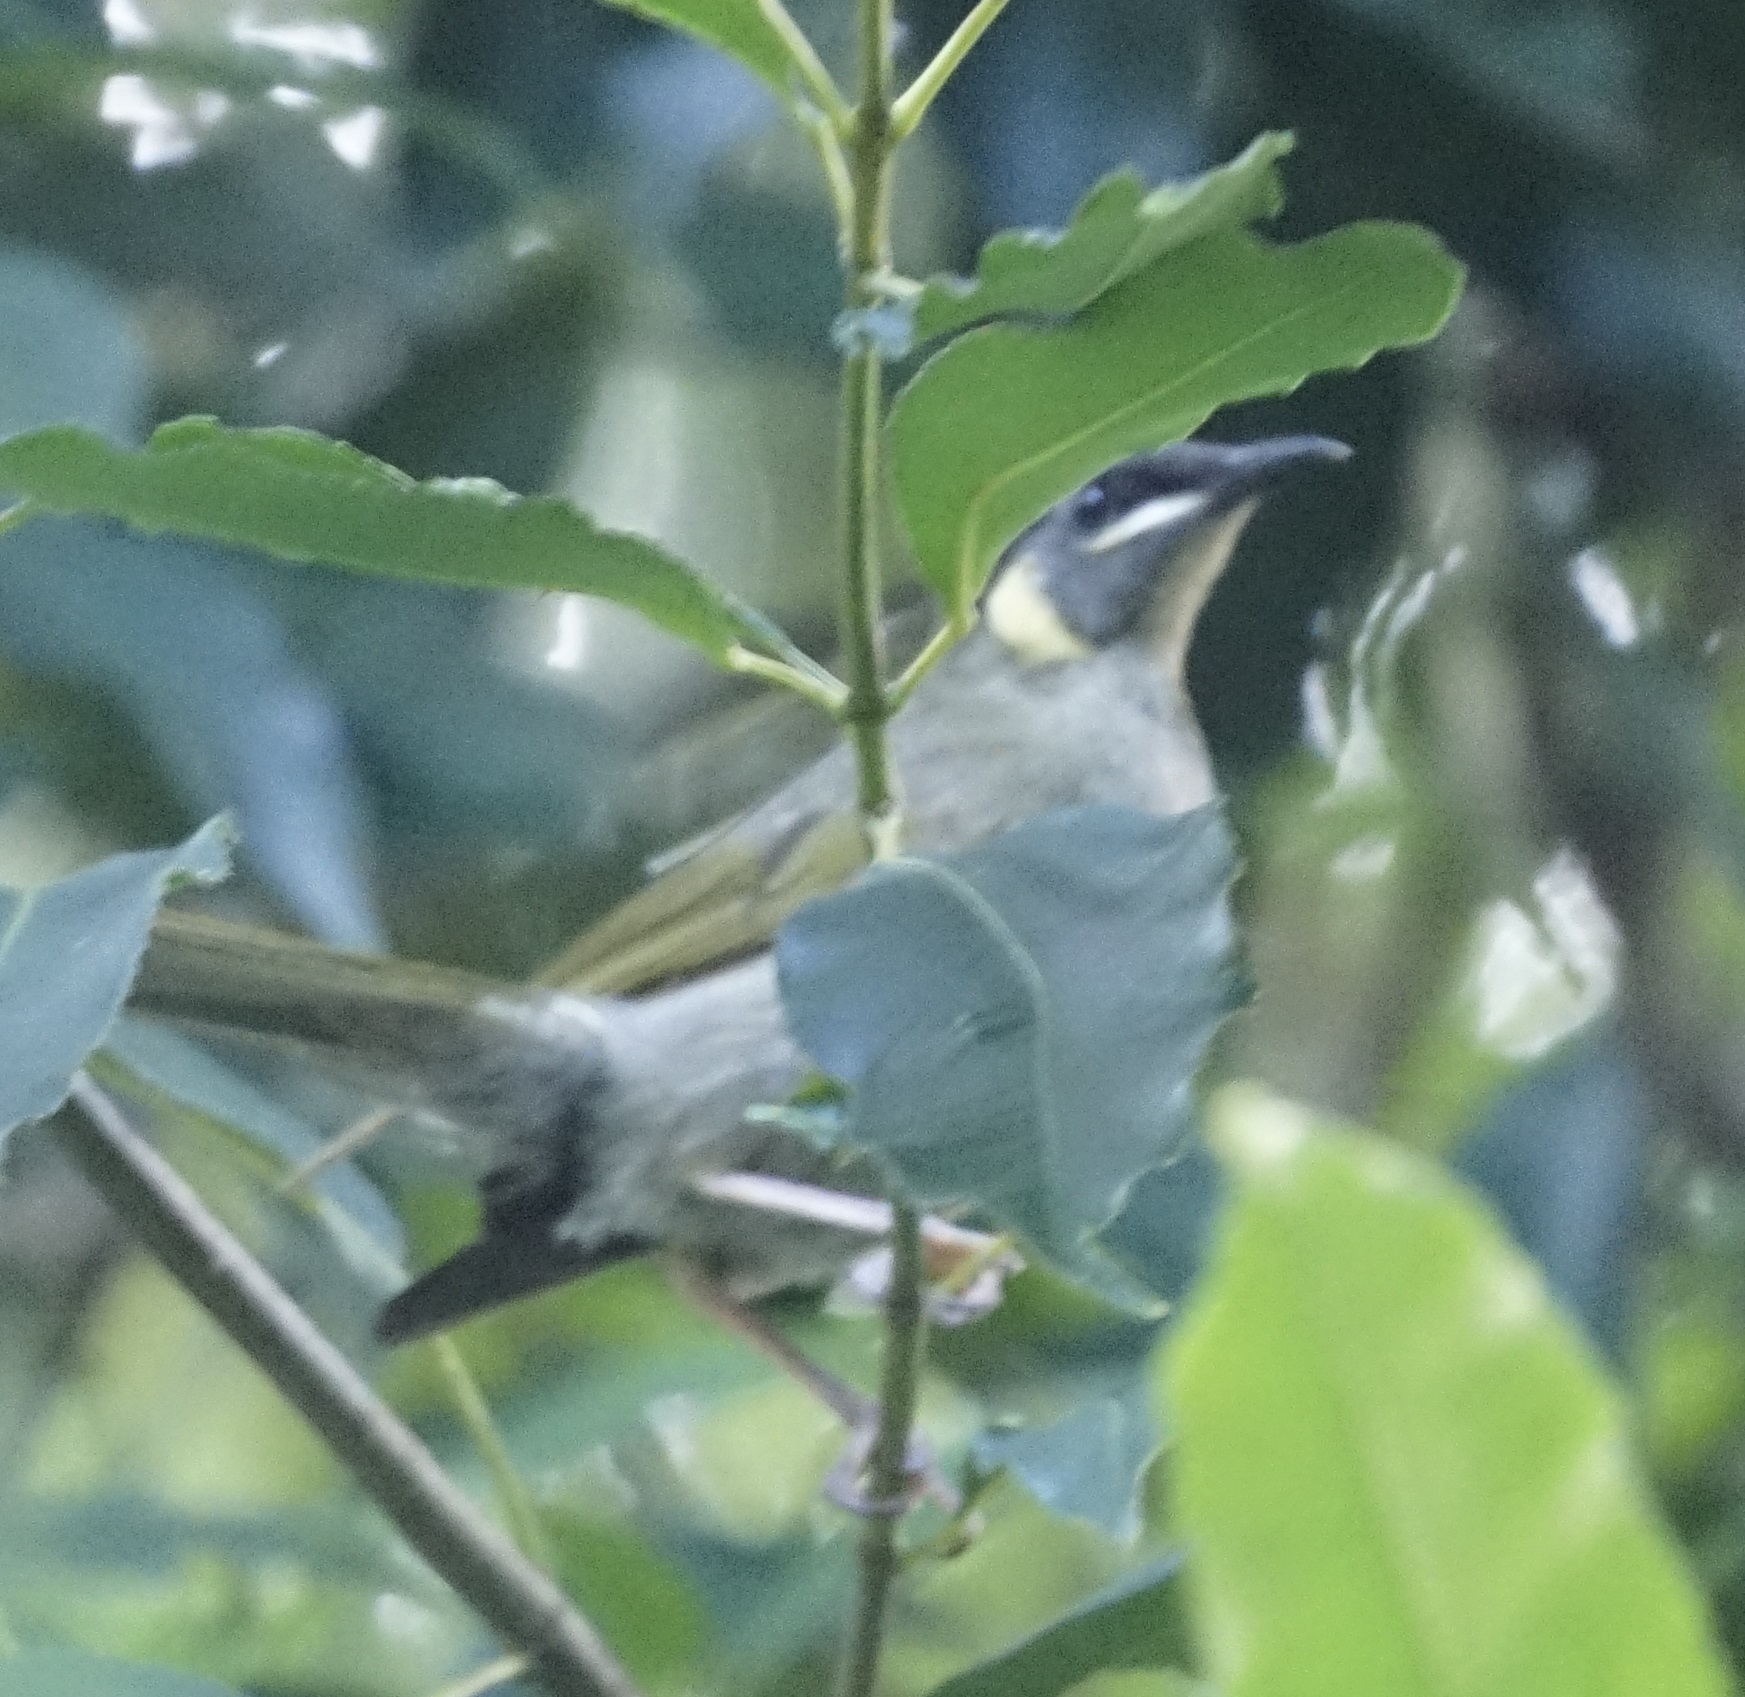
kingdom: Animalia
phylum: Chordata
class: Aves
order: Passeriformes
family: Meliphagidae
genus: Meliphaga
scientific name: Meliphaga lewinii
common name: Lewin's honeyeater
